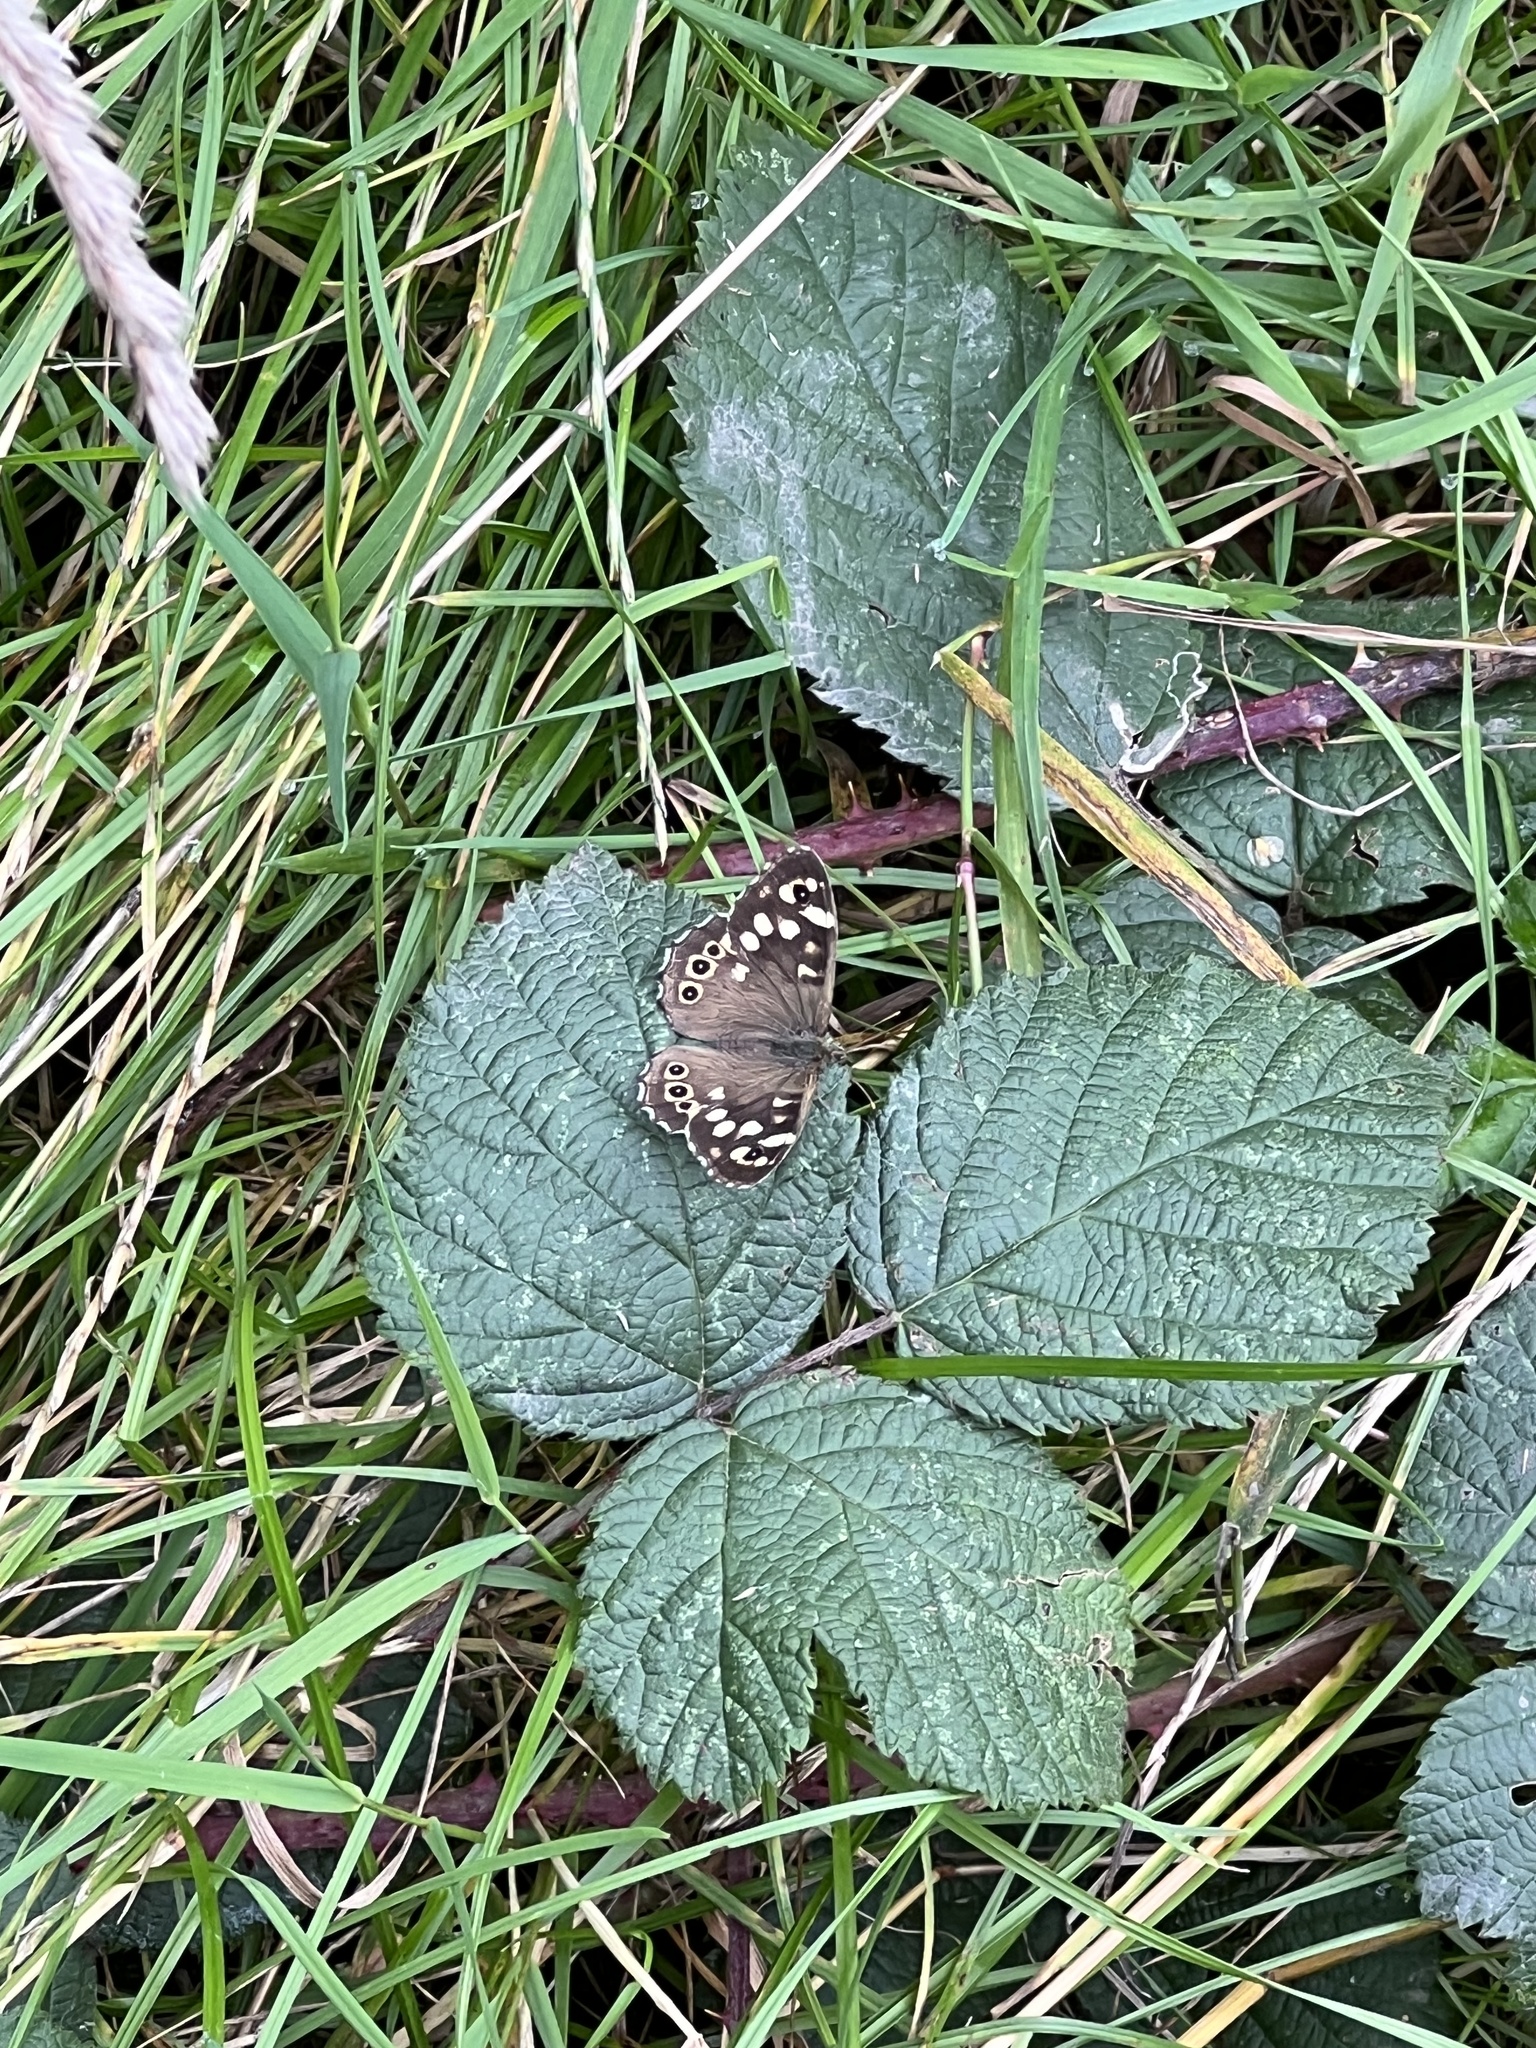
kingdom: Animalia
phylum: Arthropoda
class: Insecta
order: Lepidoptera
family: Nymphalidae
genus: Pararge
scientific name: Pararge aegeria
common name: Speckled wood
